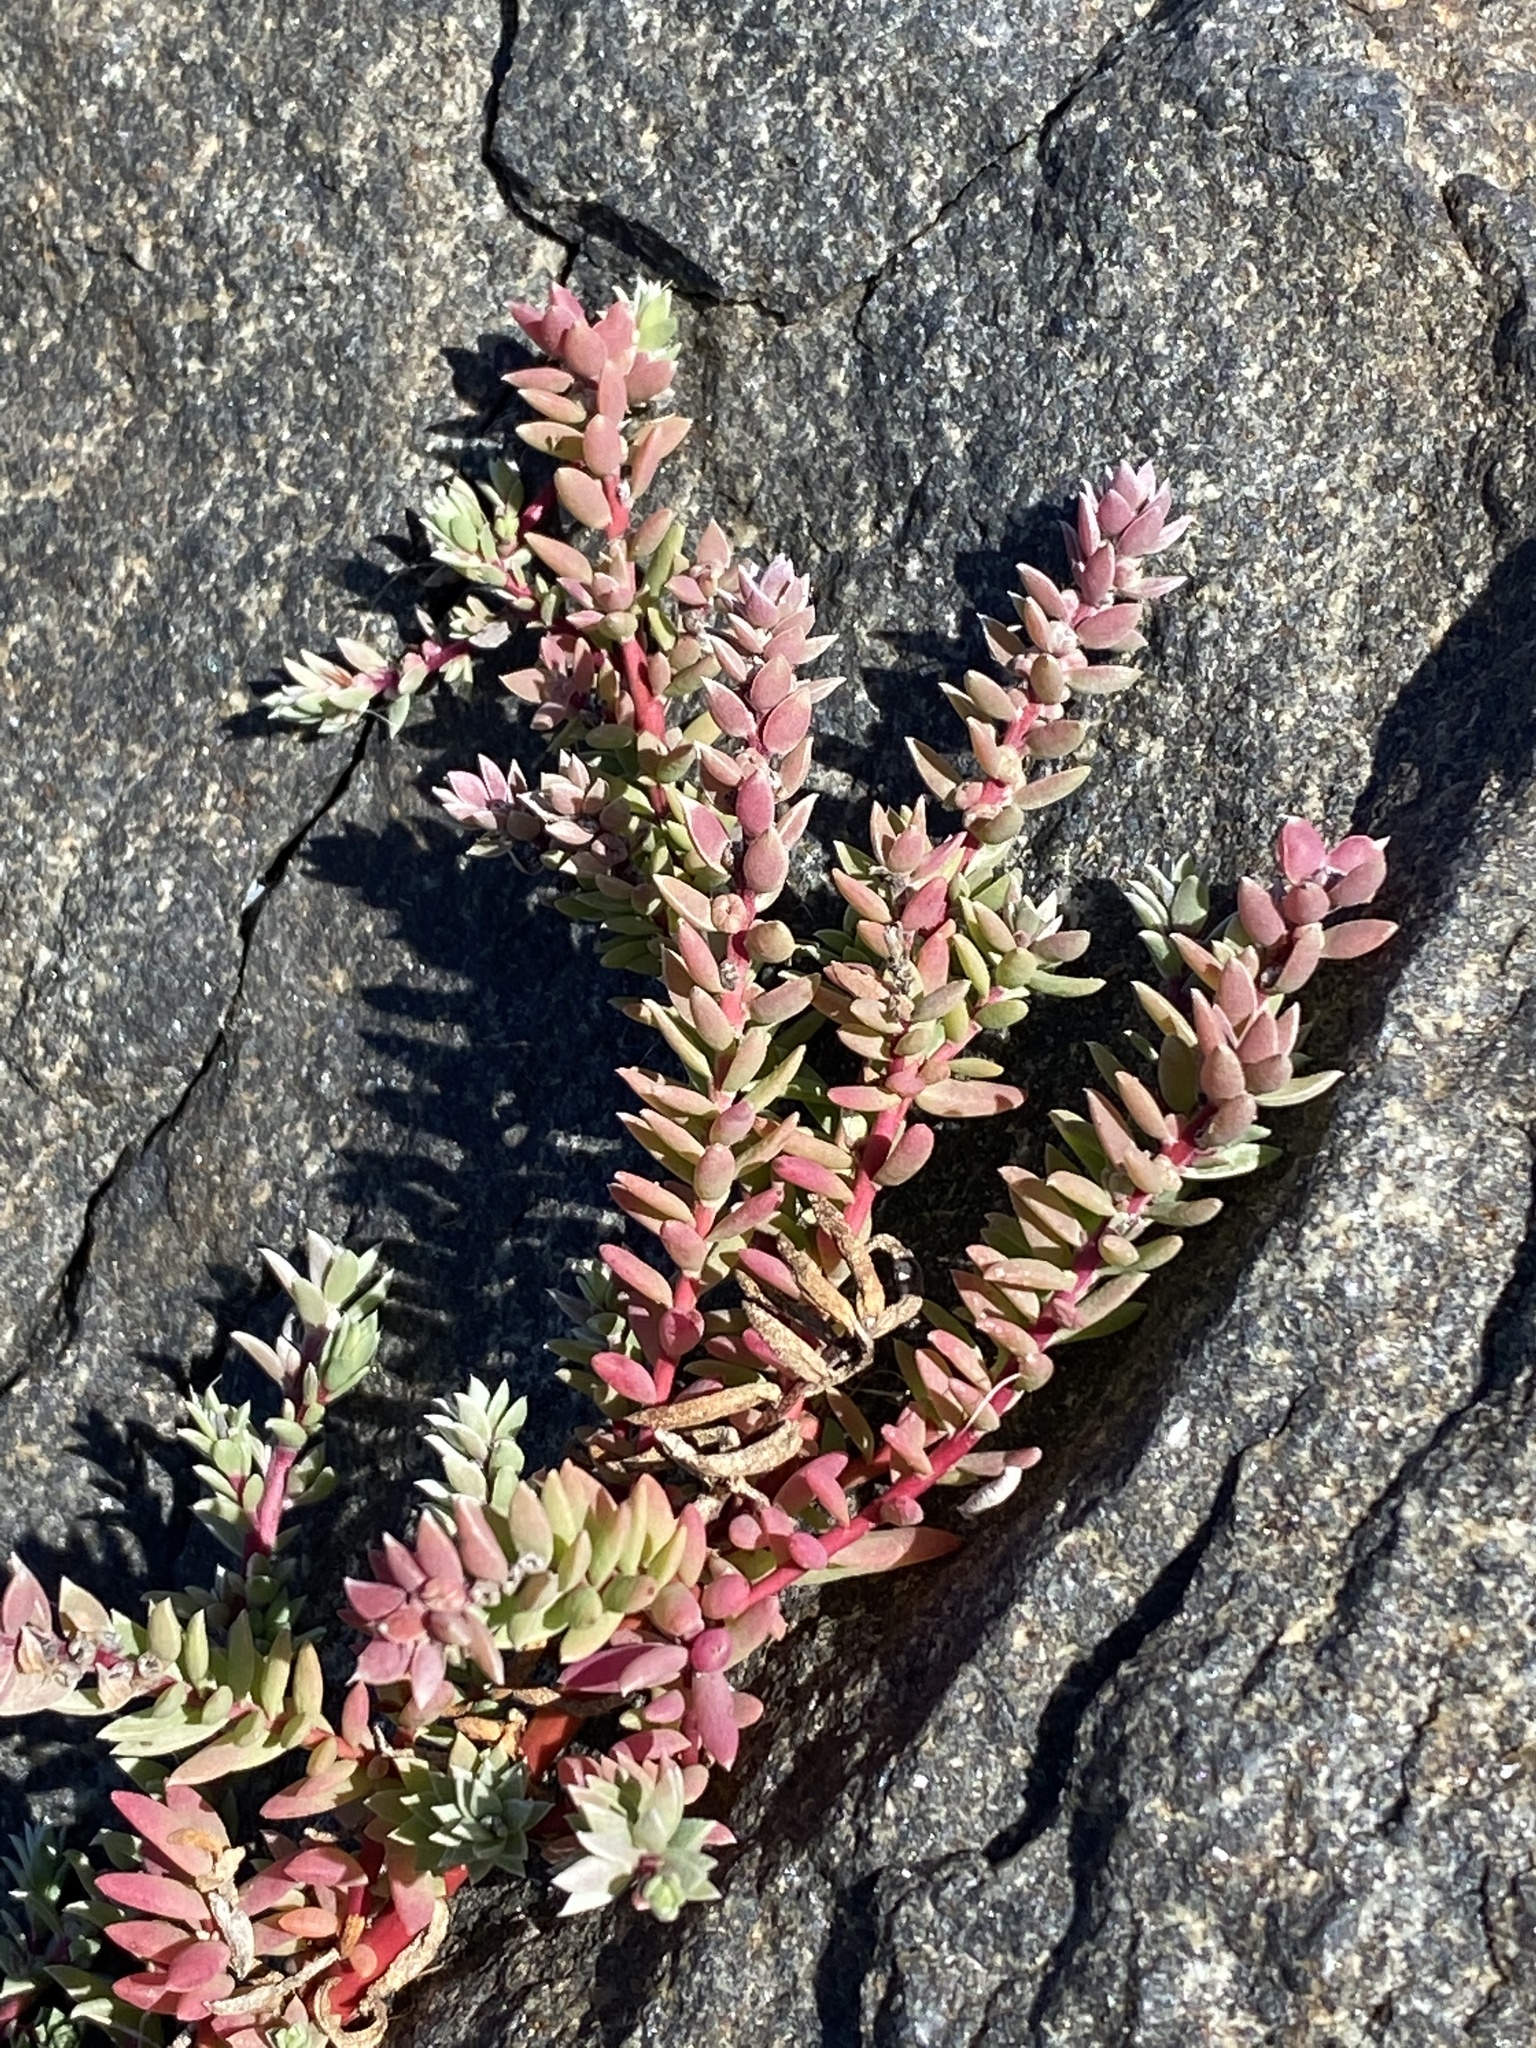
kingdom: Plantae
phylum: Tracheophyta
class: Magnoliopsida
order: Caryophyllales
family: Amaranthaceae
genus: Chenolea
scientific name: Chenolea diffusa
